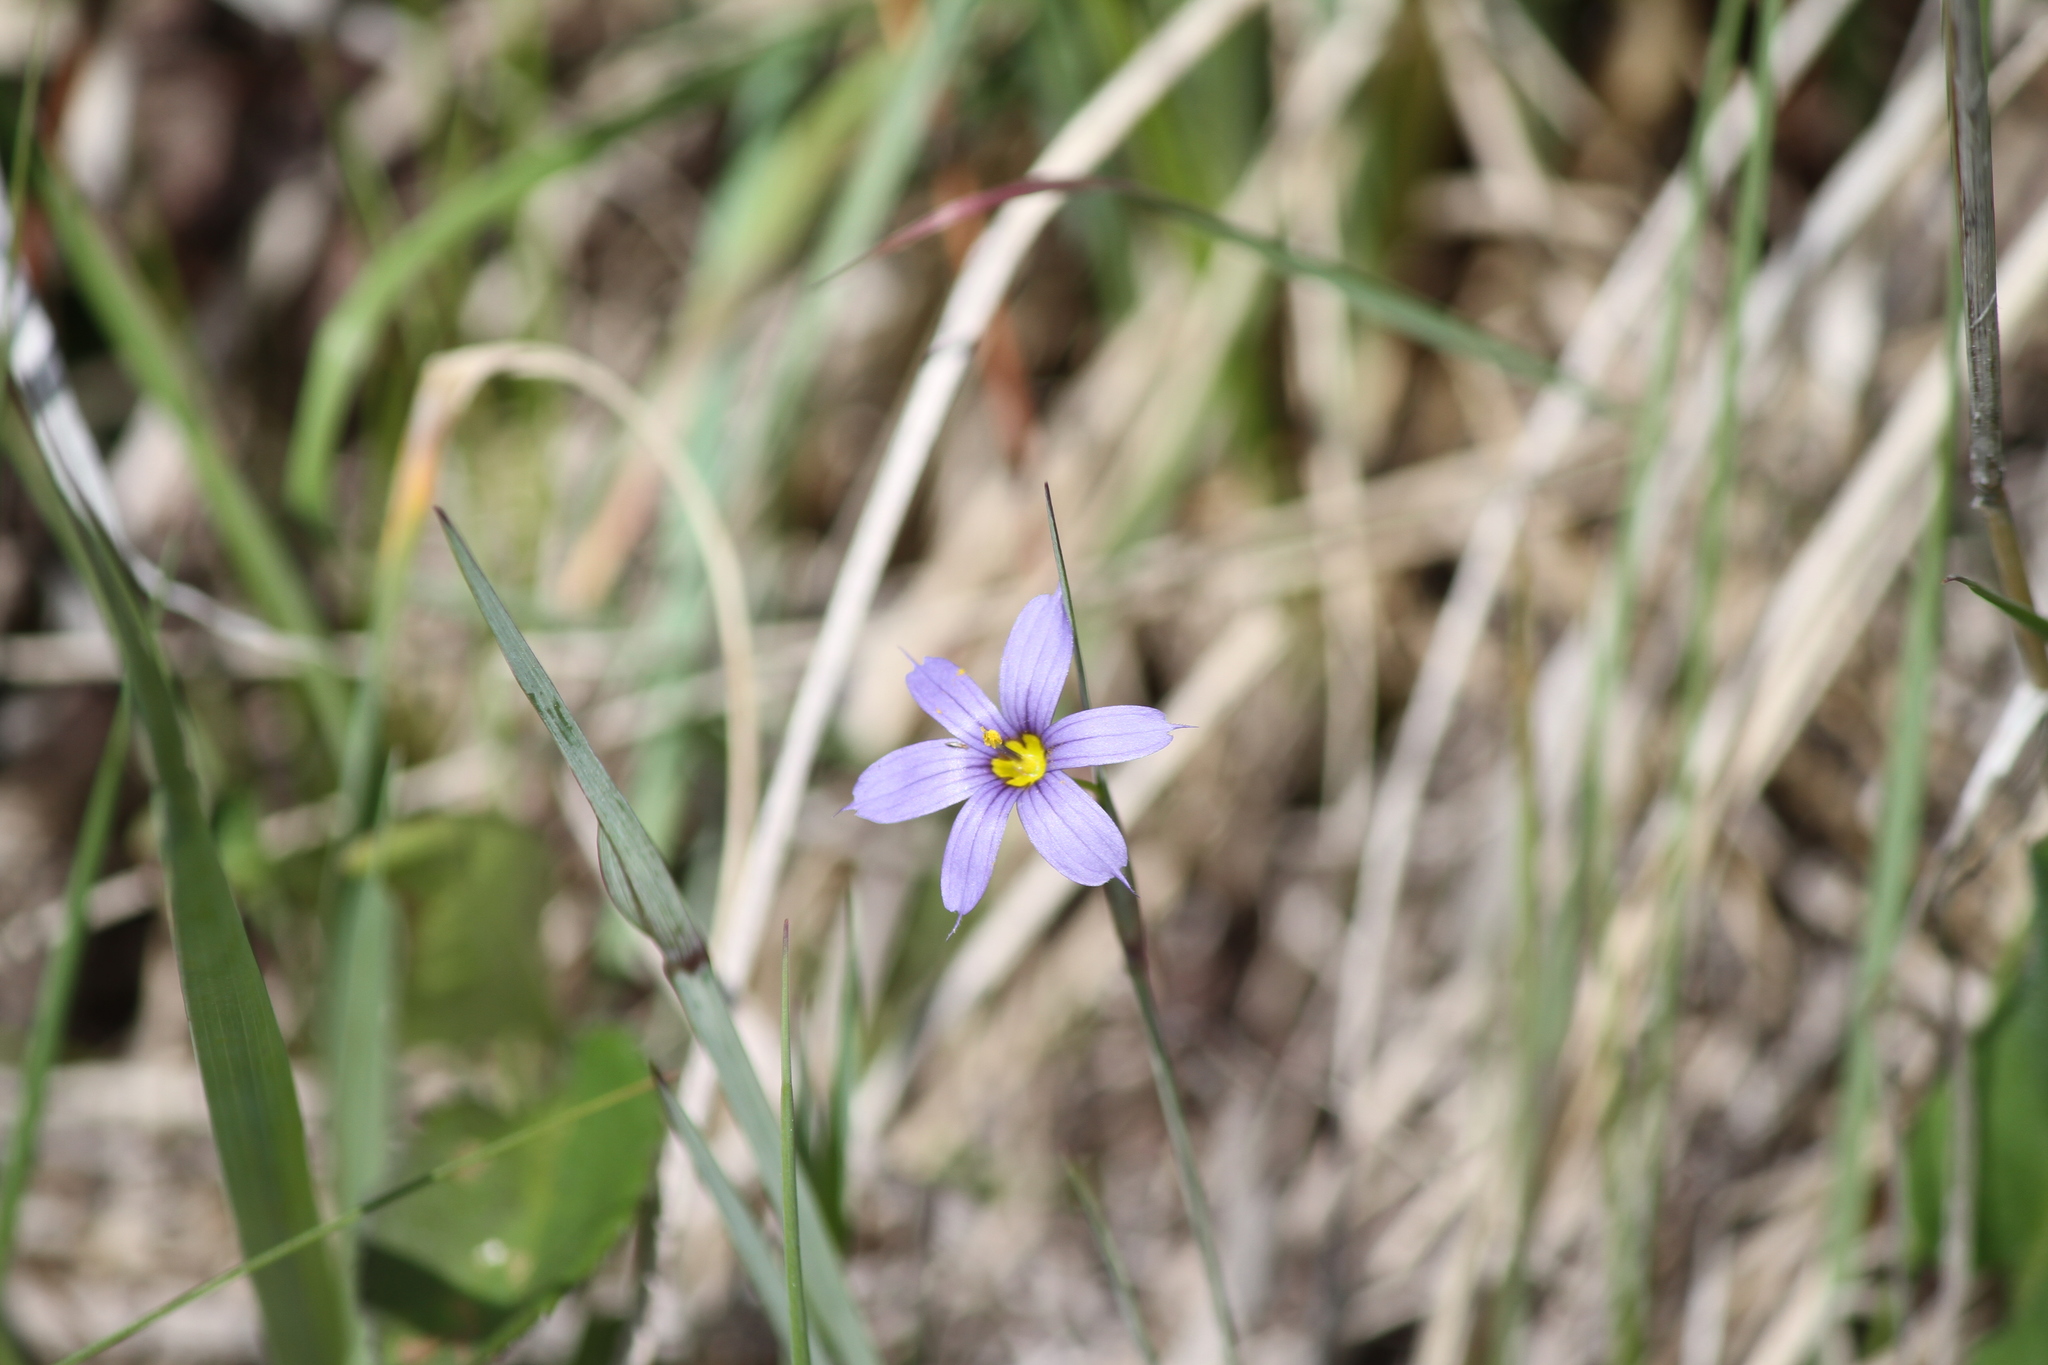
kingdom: Plantae
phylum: Tracheophyta
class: Liliopsida
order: Asparagales
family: Iridaceae
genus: Sisyrinchium
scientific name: Sisyrinchium montanum
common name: American blue-eyed-grass
